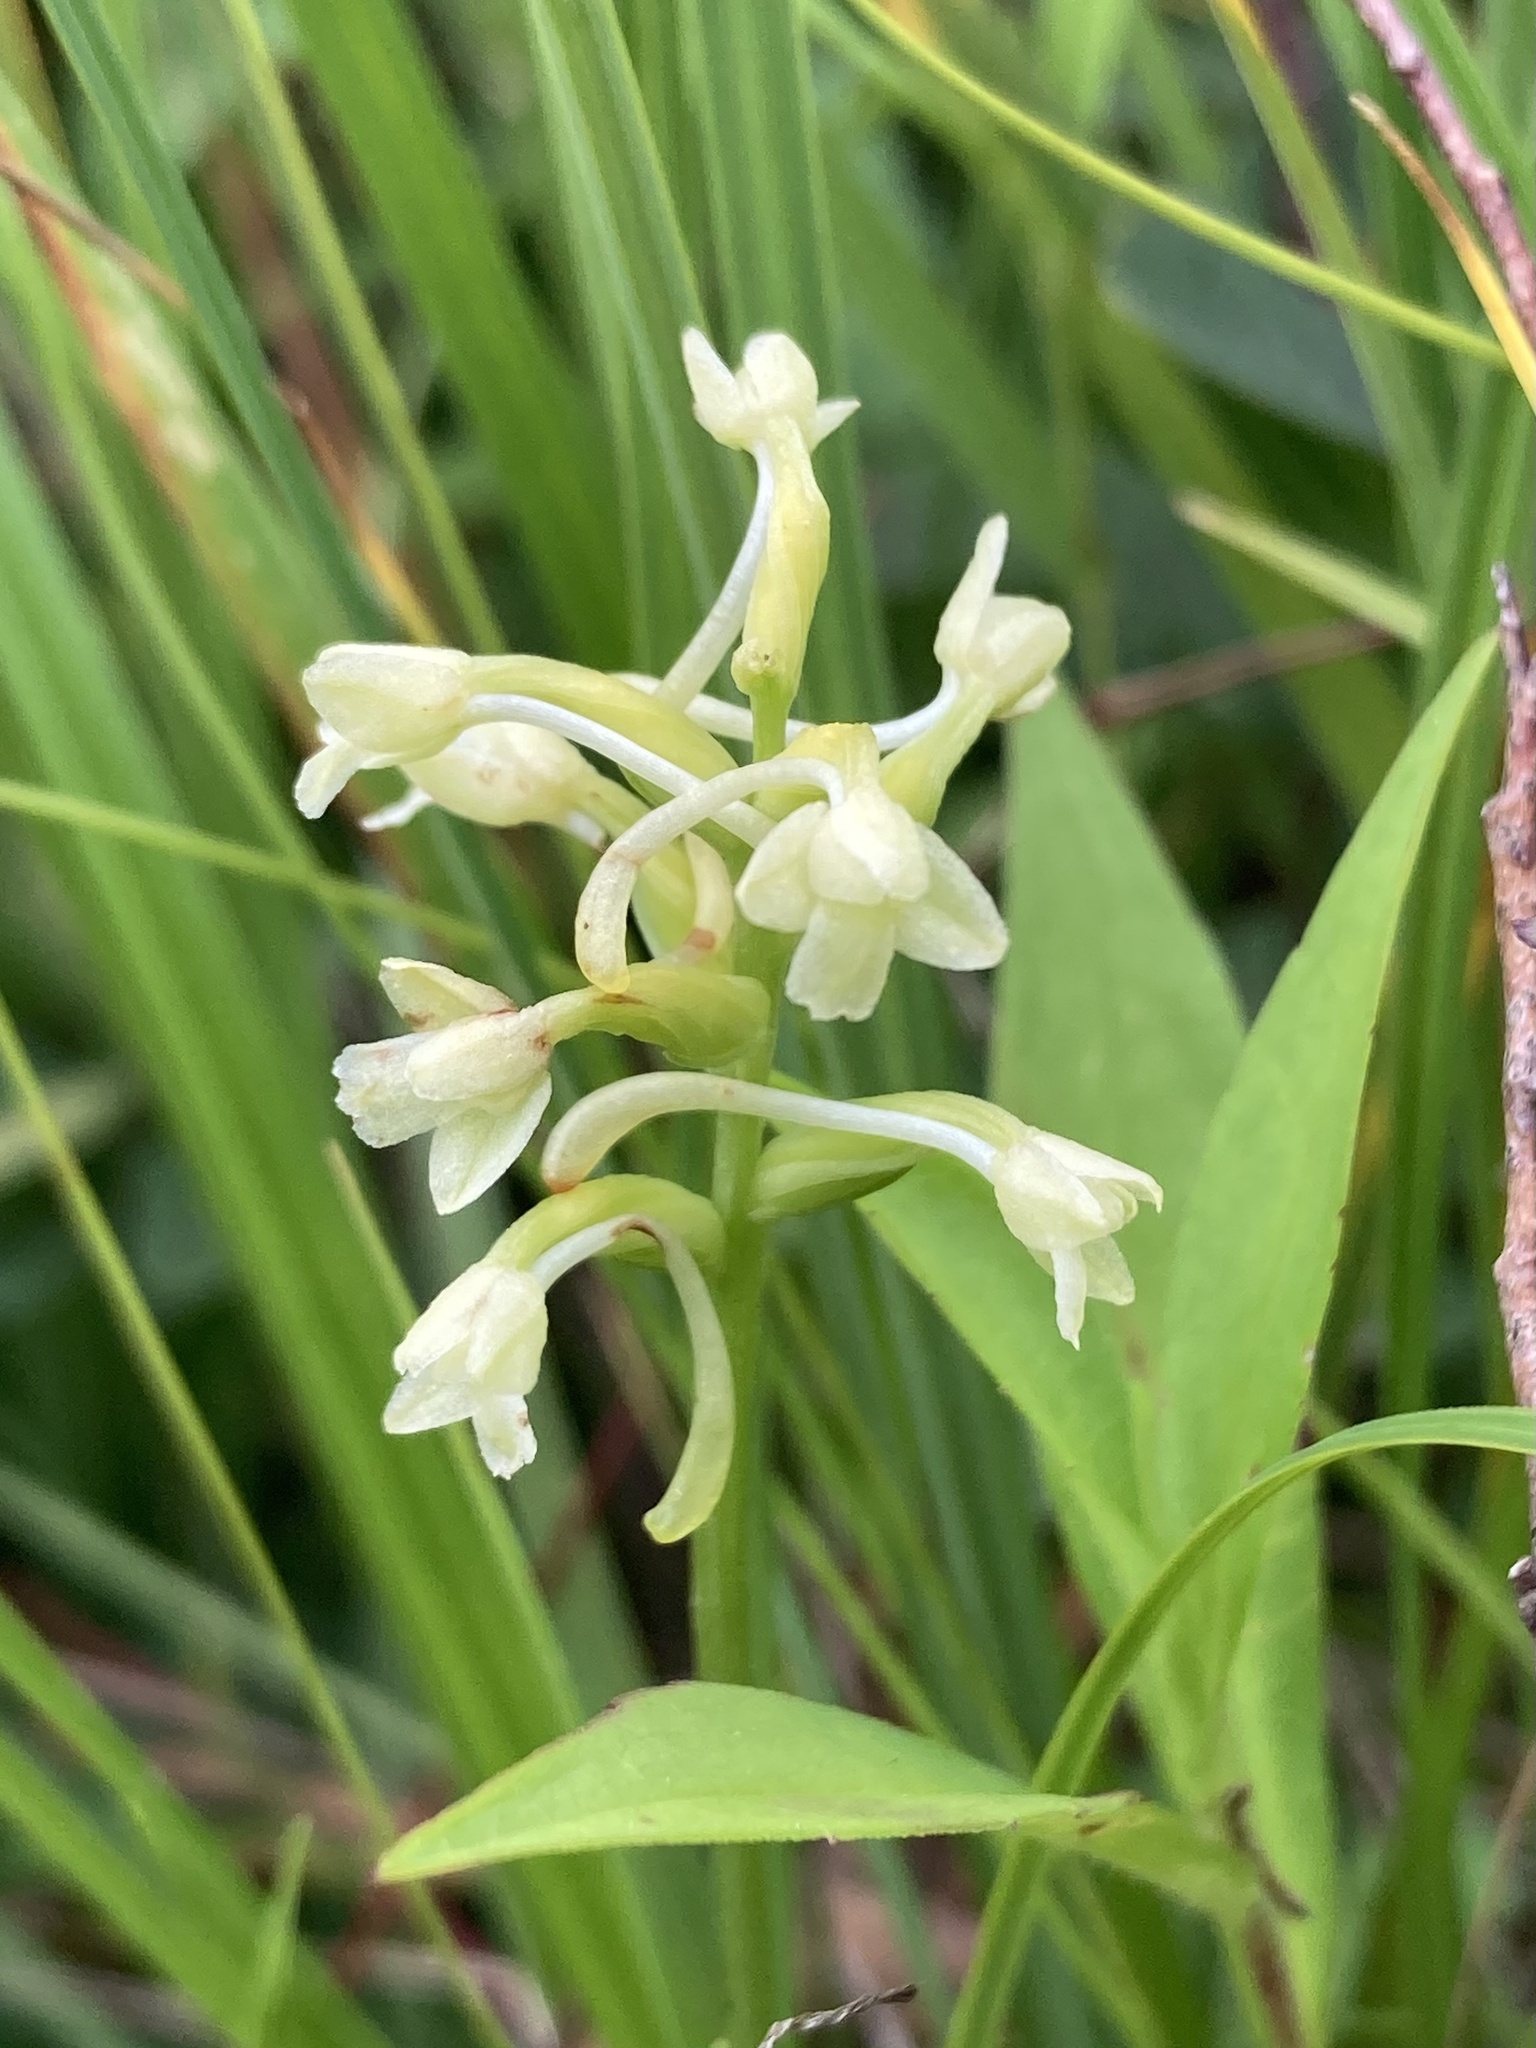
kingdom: Plantae
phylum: Tracheophyta
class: Liliopsida
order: Asparagales
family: Orchidaceae
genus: Platanthera
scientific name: Platanthera clavellata
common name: Club-spur orchid
